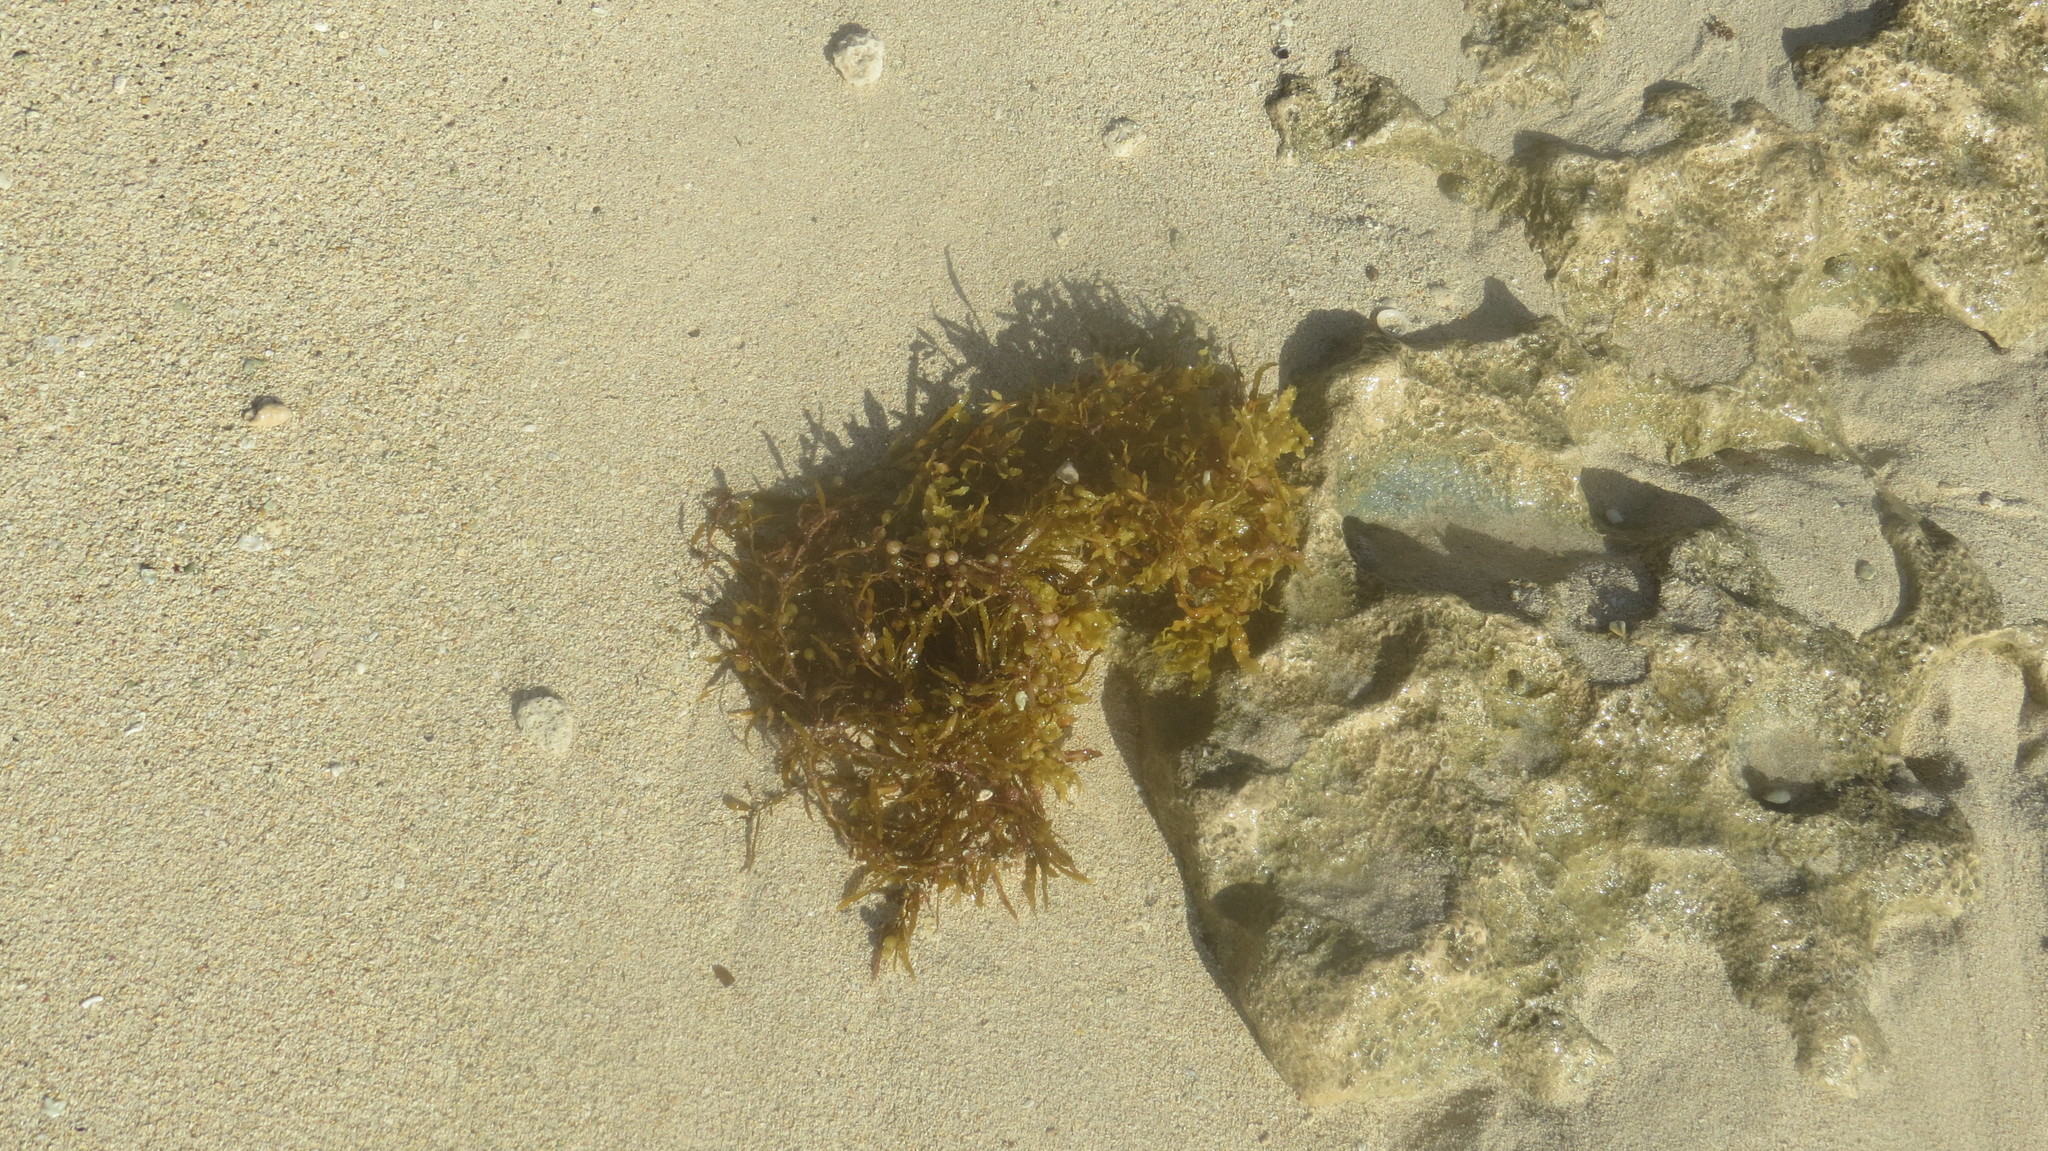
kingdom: Chromista
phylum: Ochrophyta
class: Phaeophyceae
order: Fucales
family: Sargassaceae
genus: Sargassum
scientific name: Sargassum fluitans
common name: Sargassum seaweed
